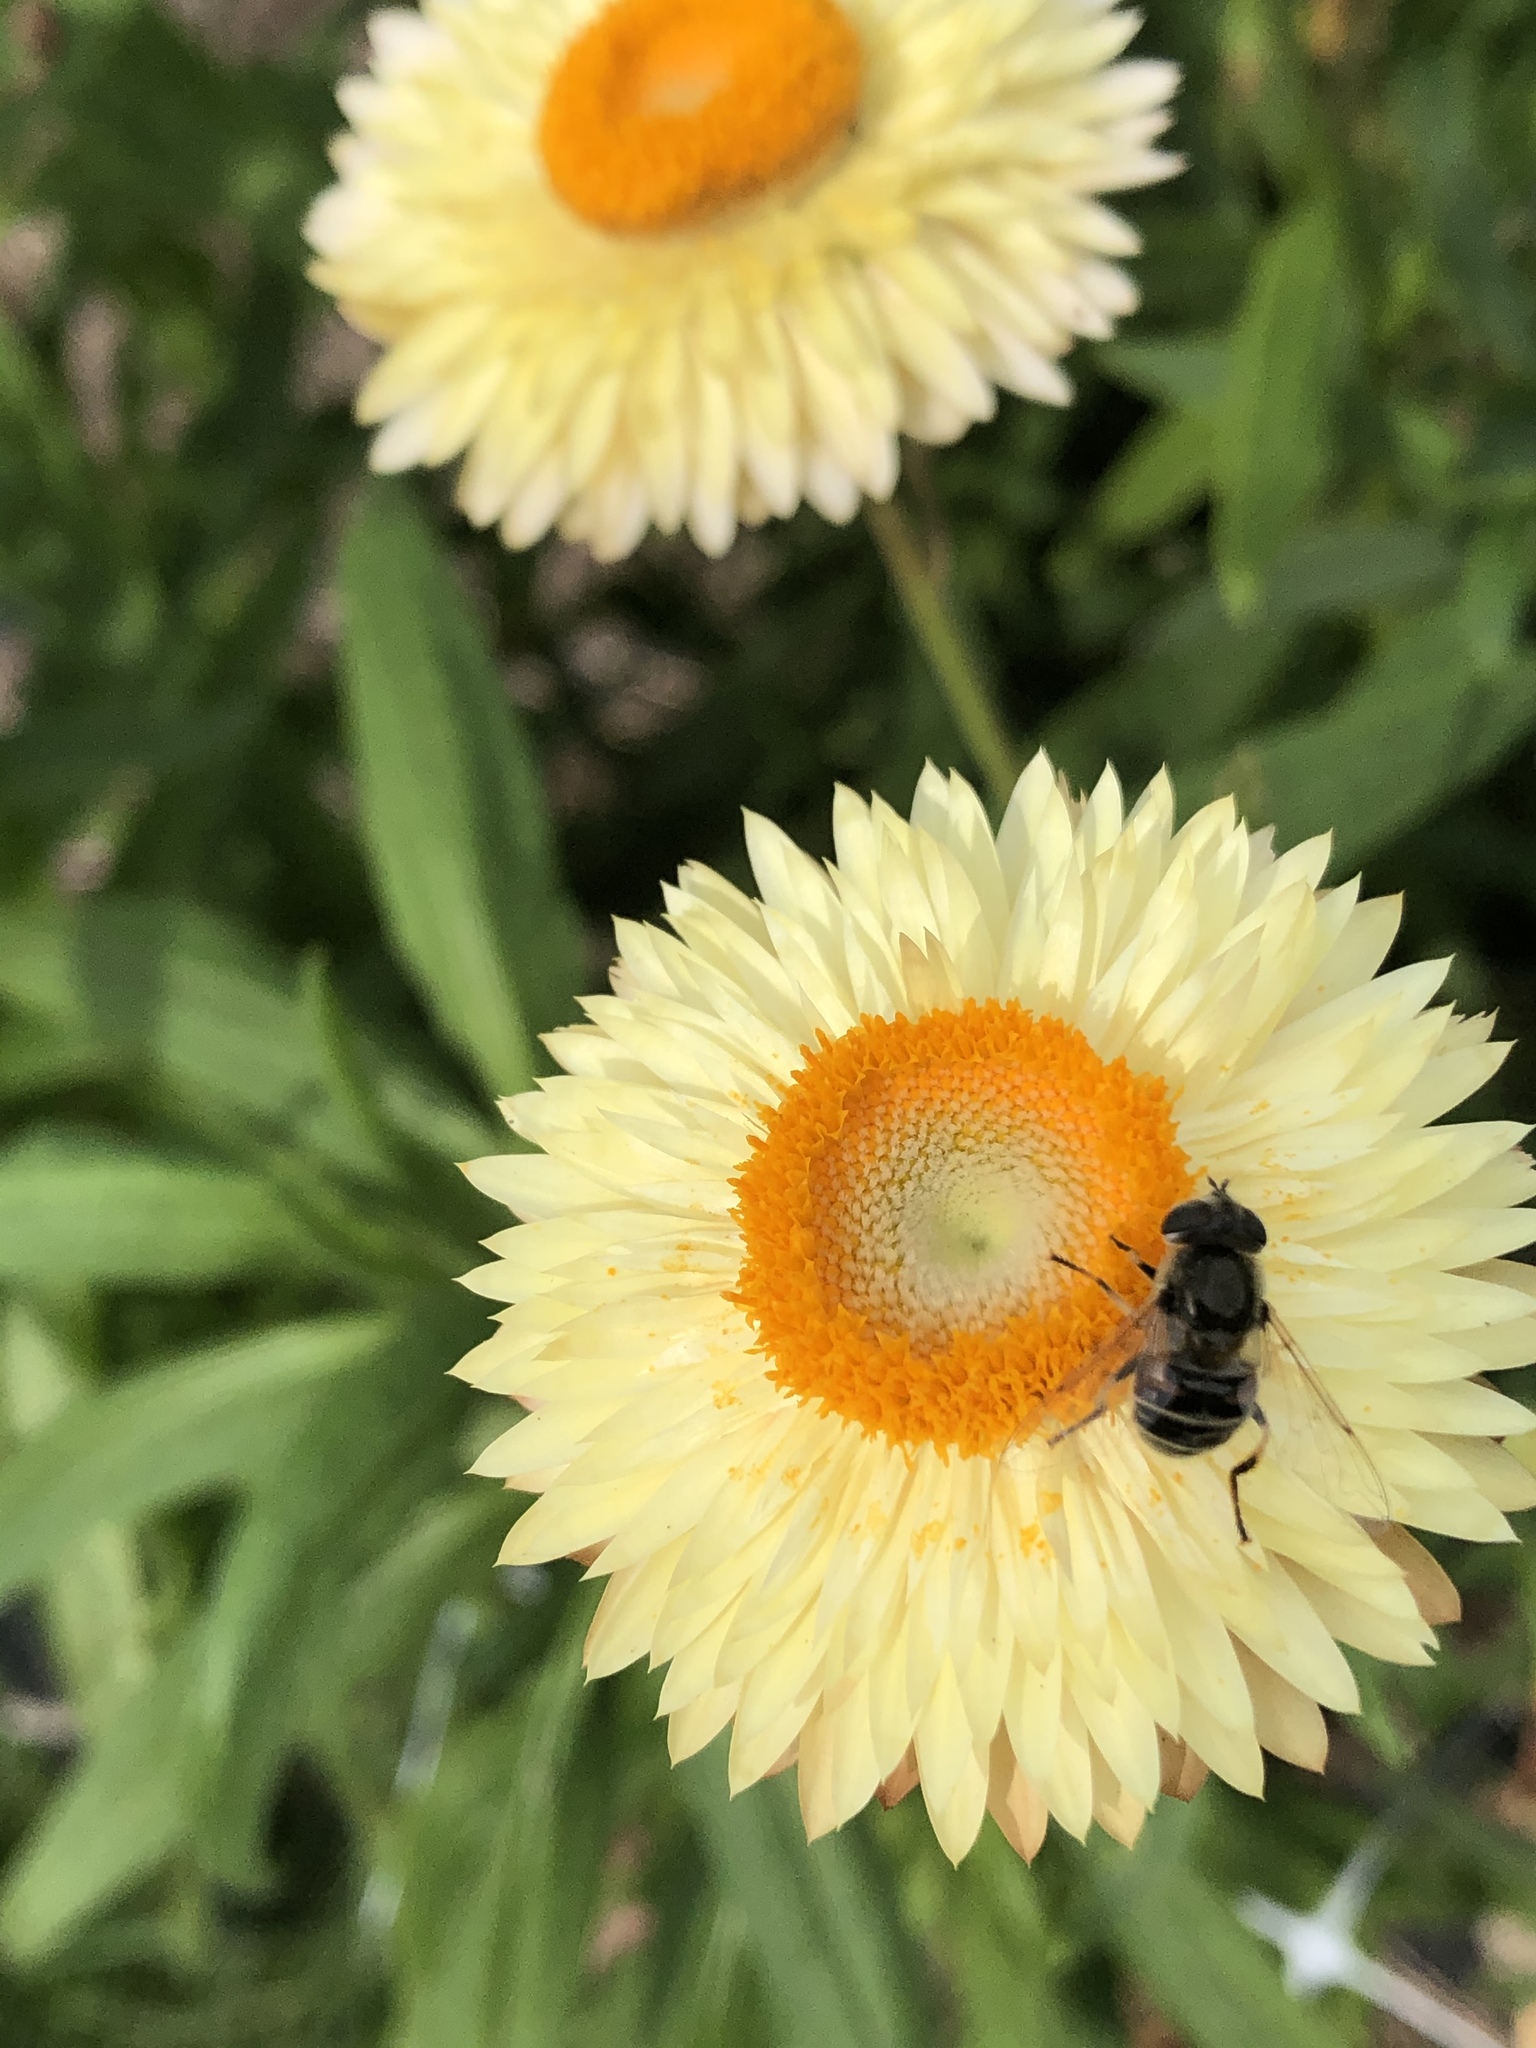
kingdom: Animalia
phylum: Arthropoda
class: Insecta
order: Diptera
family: Syrphidae
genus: Eristalis
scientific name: Eristalis stipator
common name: Yellow-shouldered drone fly
